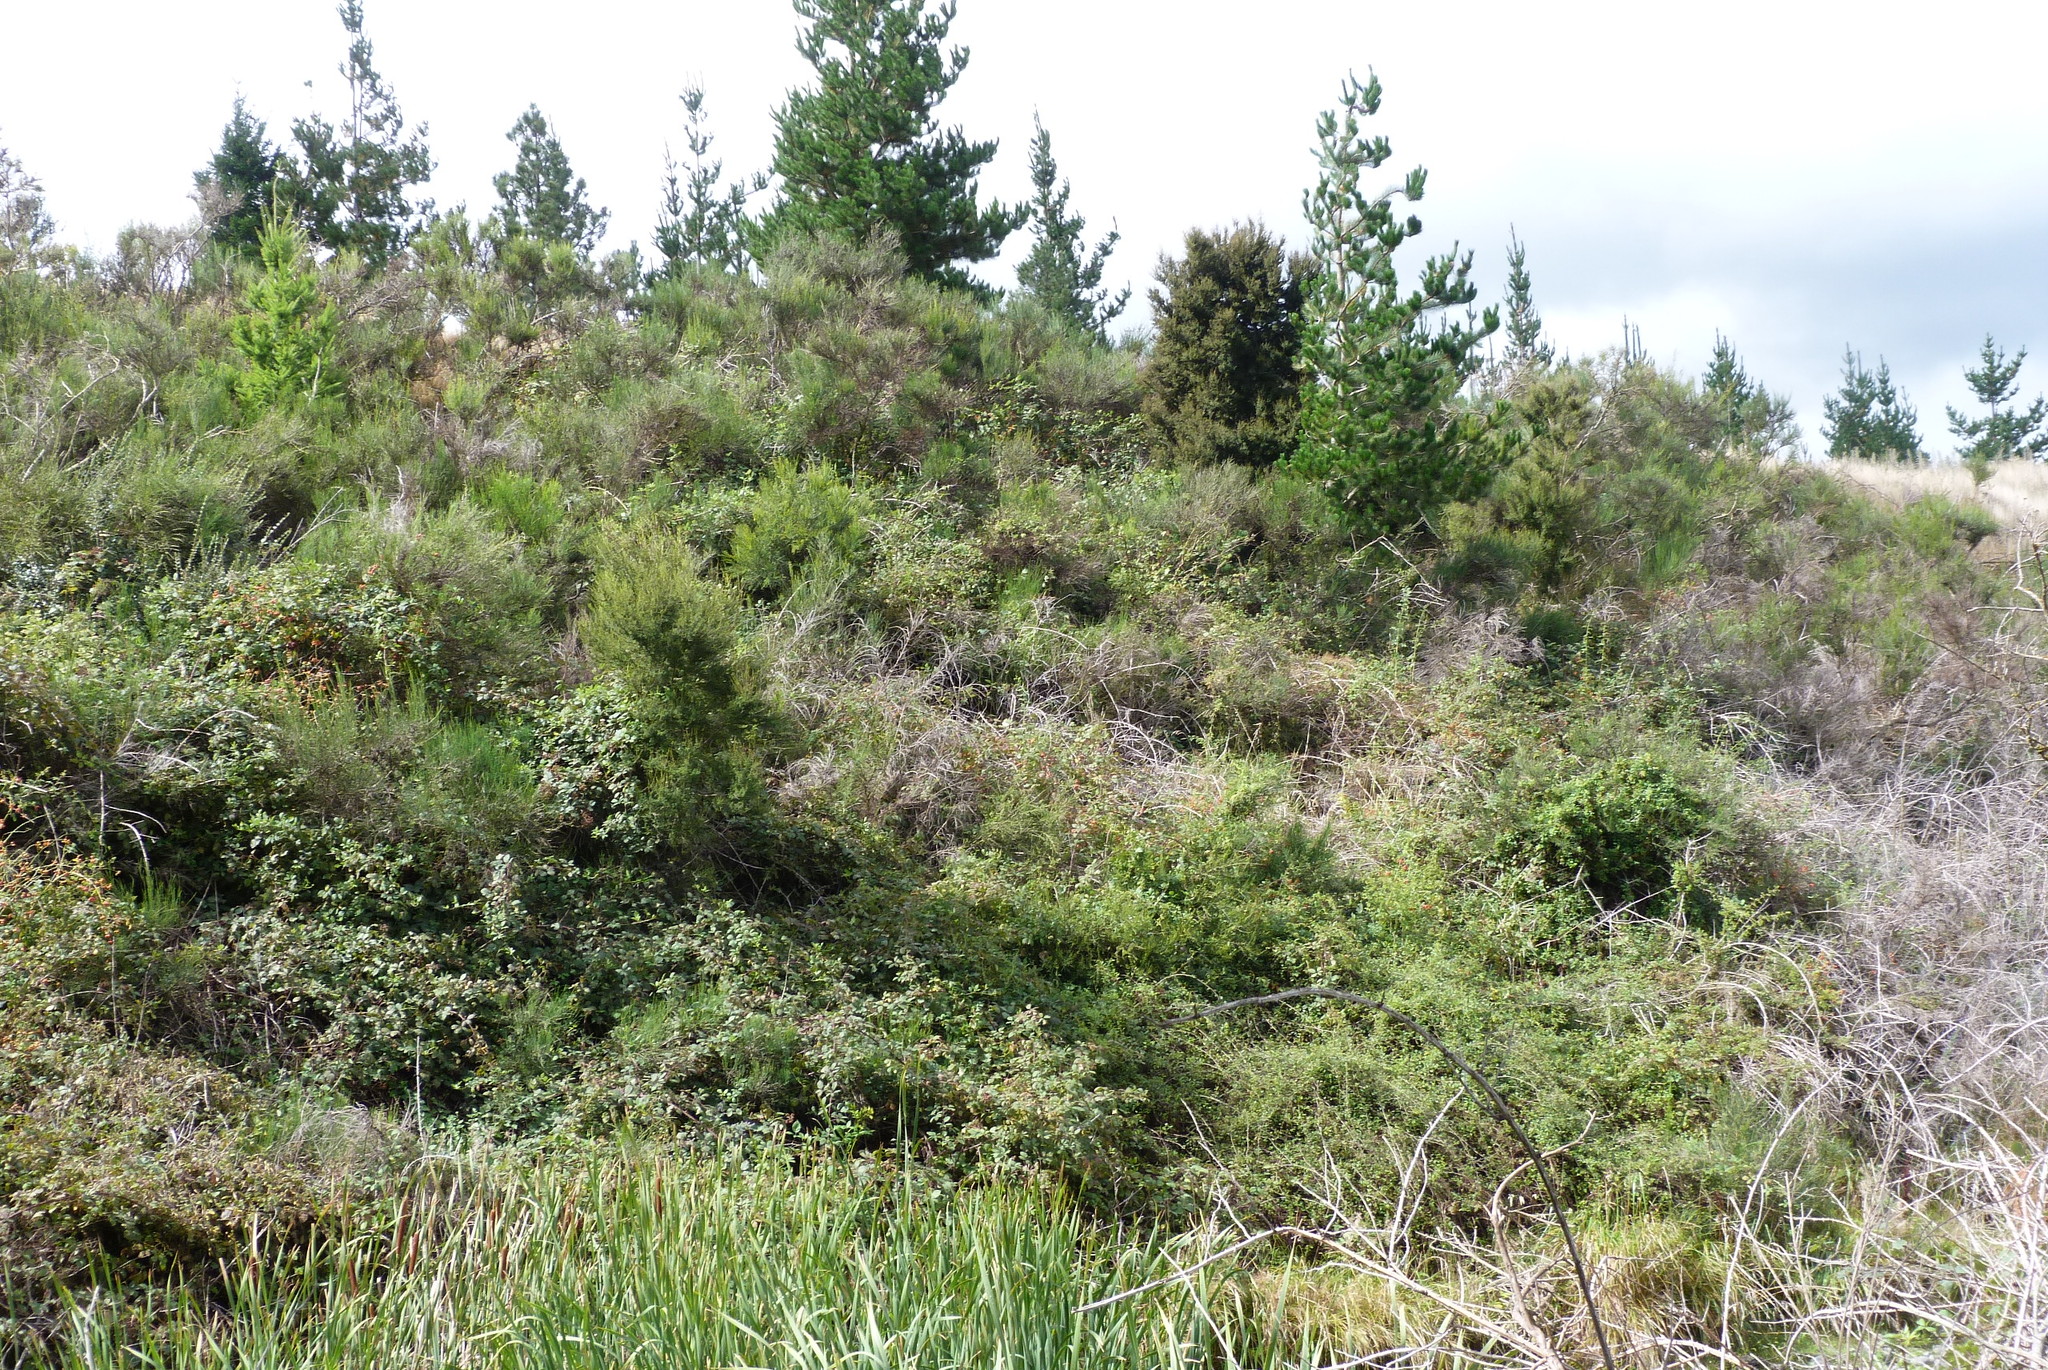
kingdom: Plantae
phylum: Tracheophyta
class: Magnoliopsida
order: Fabales
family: Fabaceae
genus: Cytisus
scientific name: Cytisus scoparius
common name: Scotch broom
